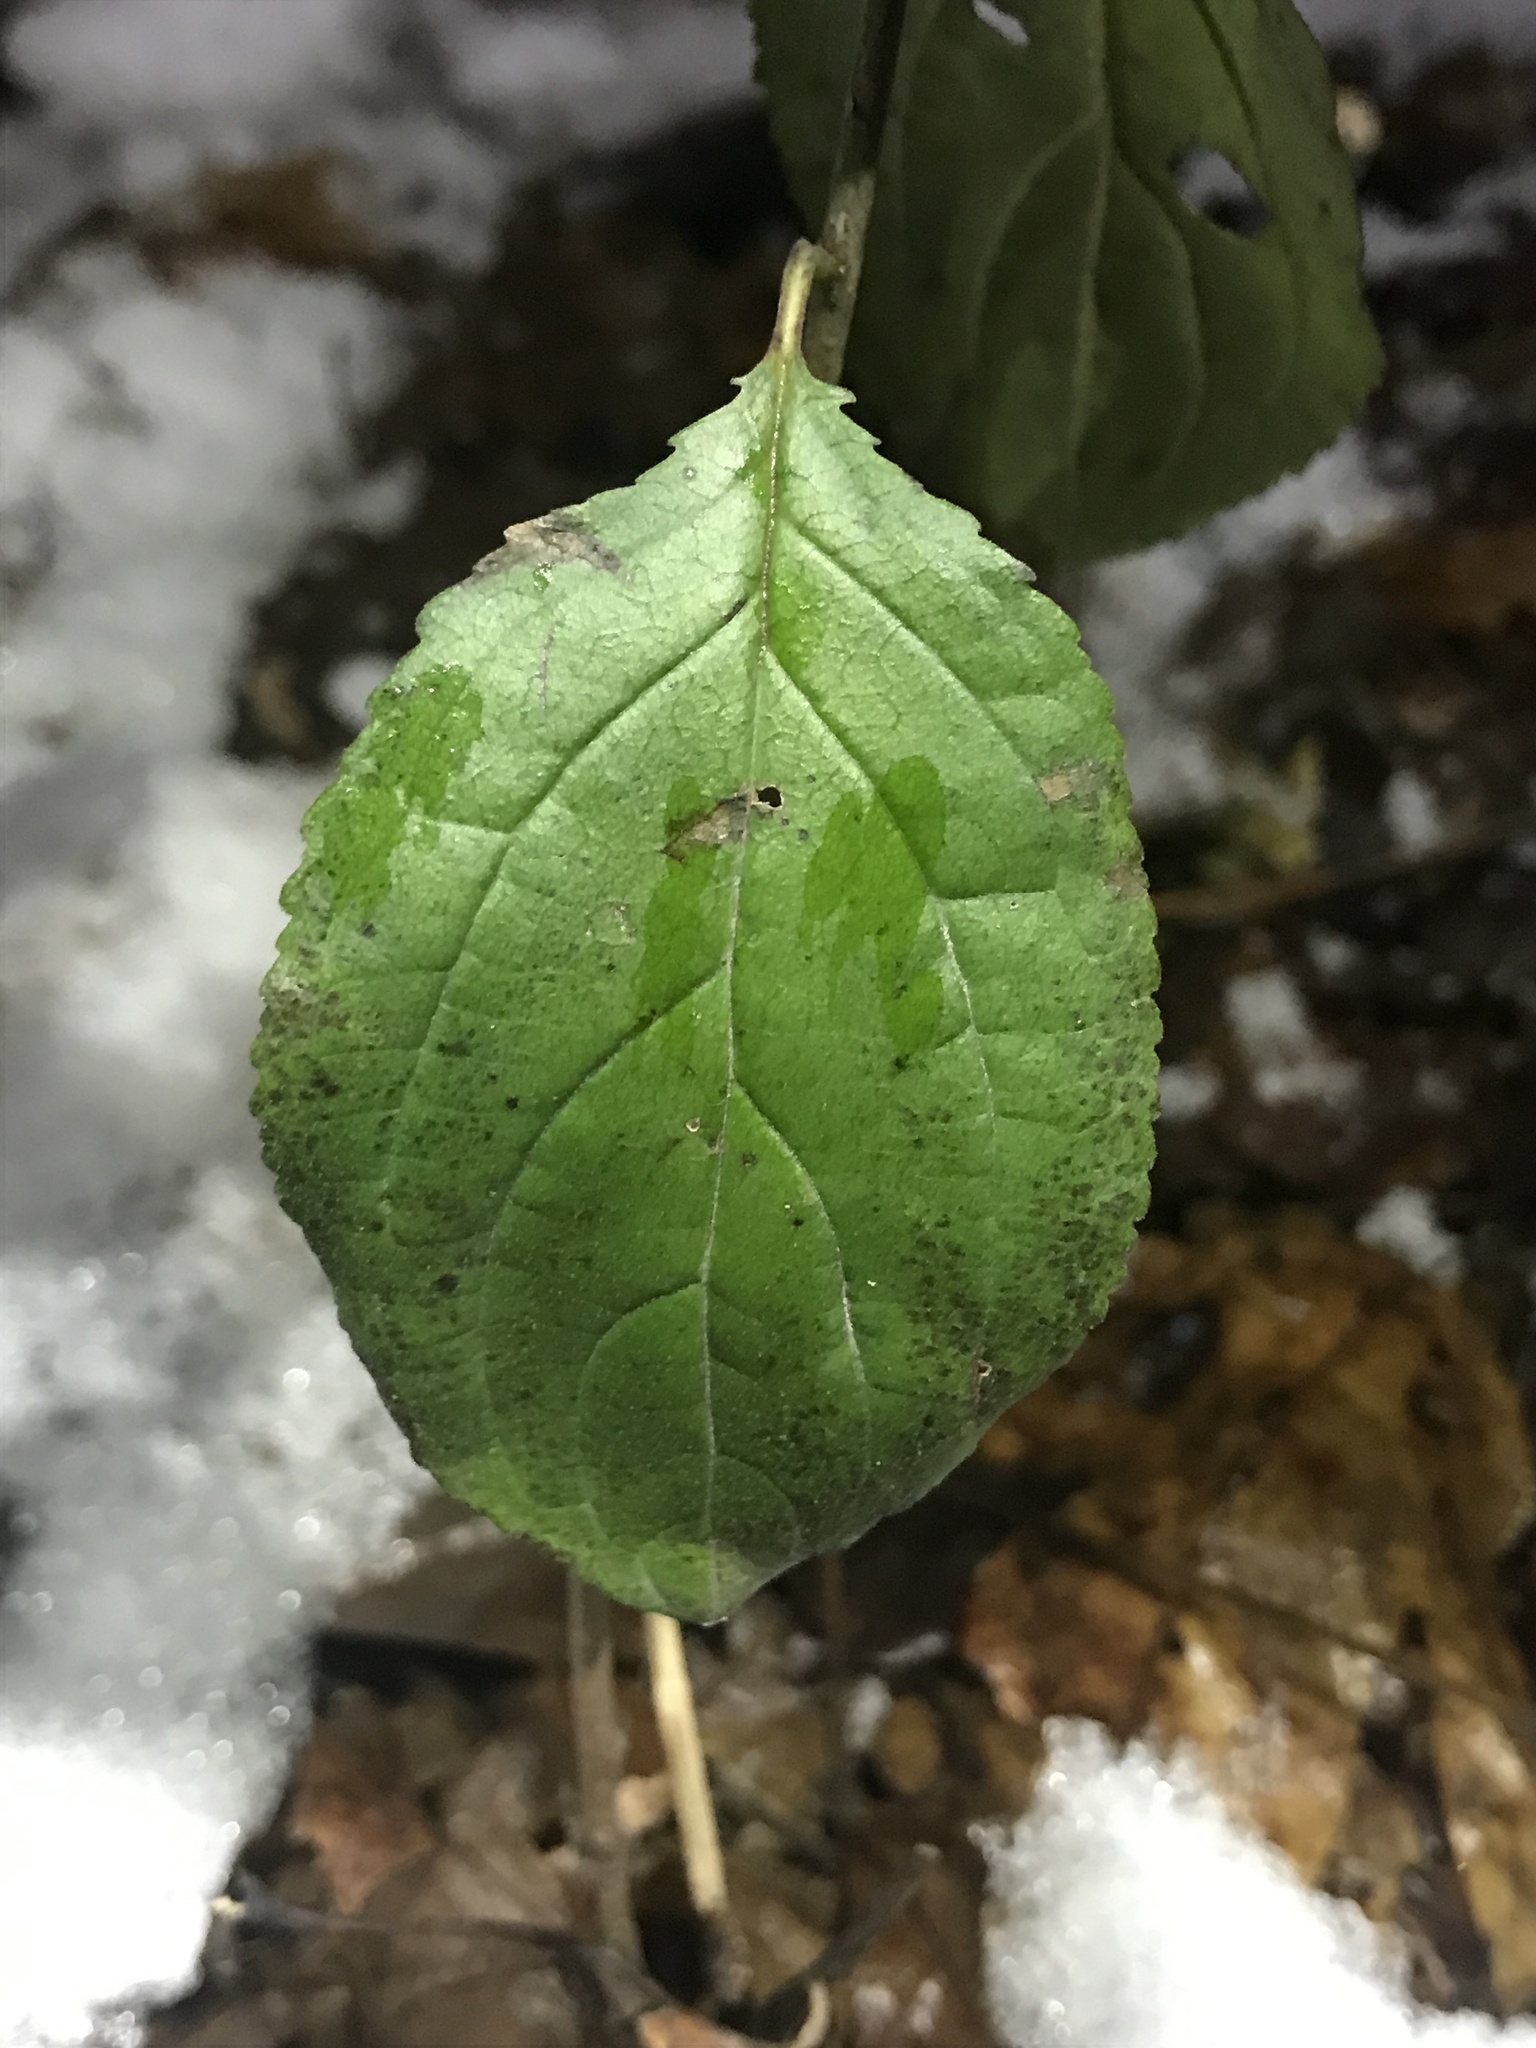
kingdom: Plantae
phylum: Tracheophyta
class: Magnoliopsida
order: Rosales
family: Rhamnaceae
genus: Rhamnus
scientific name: Rhamnus cathartica
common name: Common buckthorn
